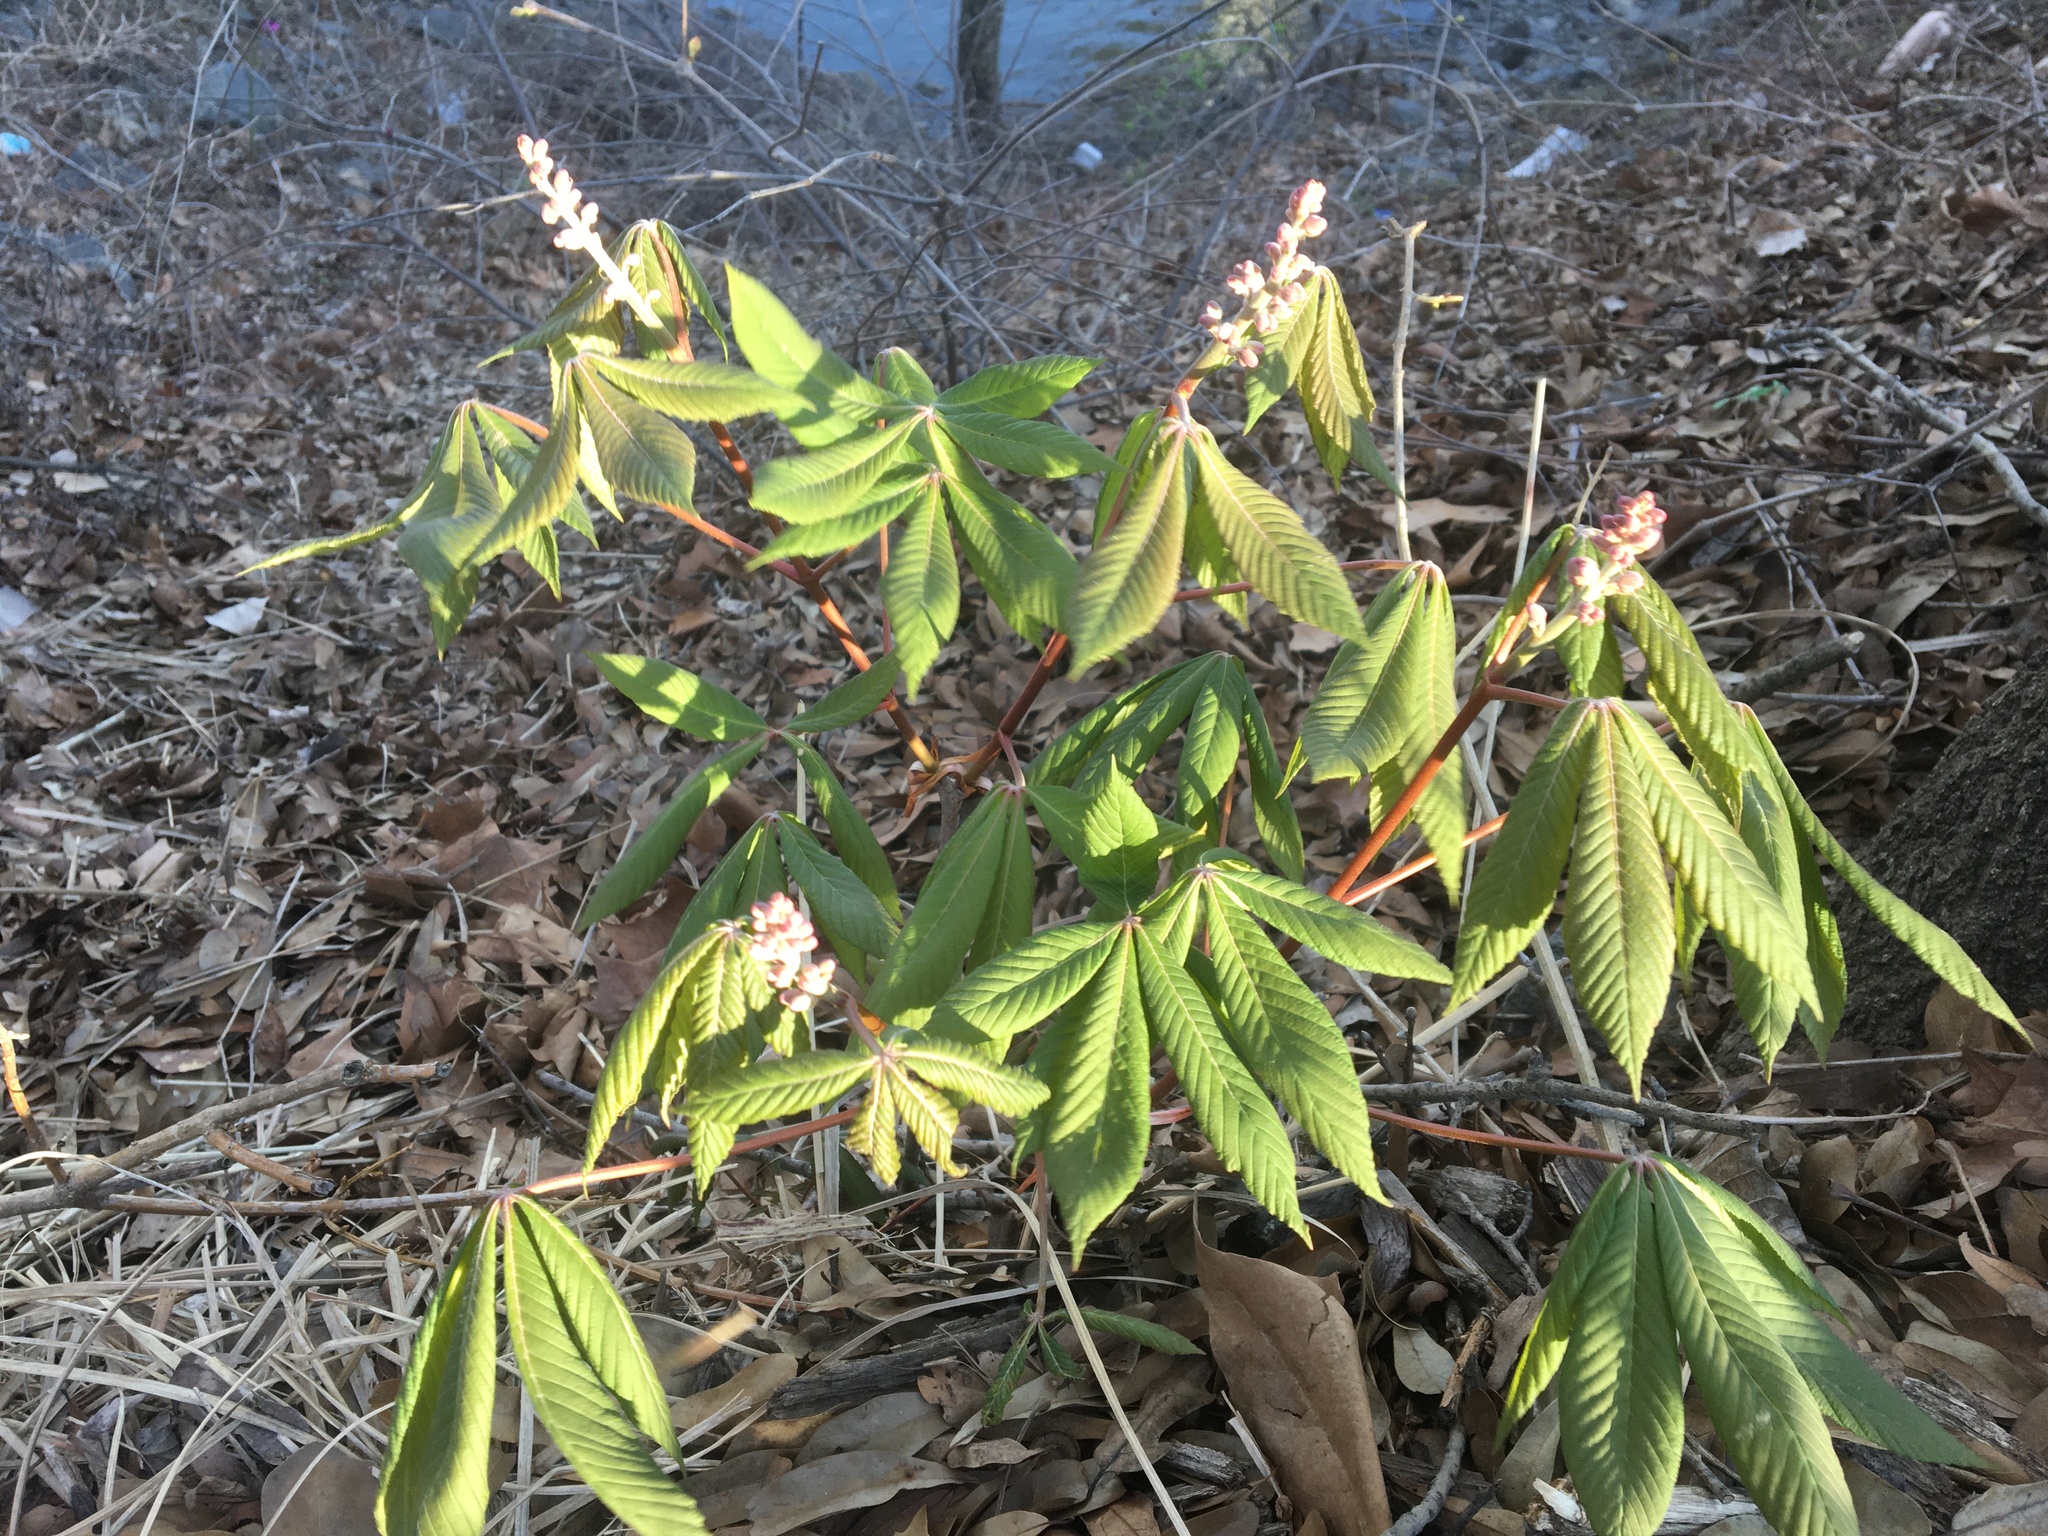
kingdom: Plantae
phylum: Tracheophyta
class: Magnoliopsida
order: Sapindales
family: Sapindaceae
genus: Aesculus
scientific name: Aesculus pavia
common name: Red buckeye
